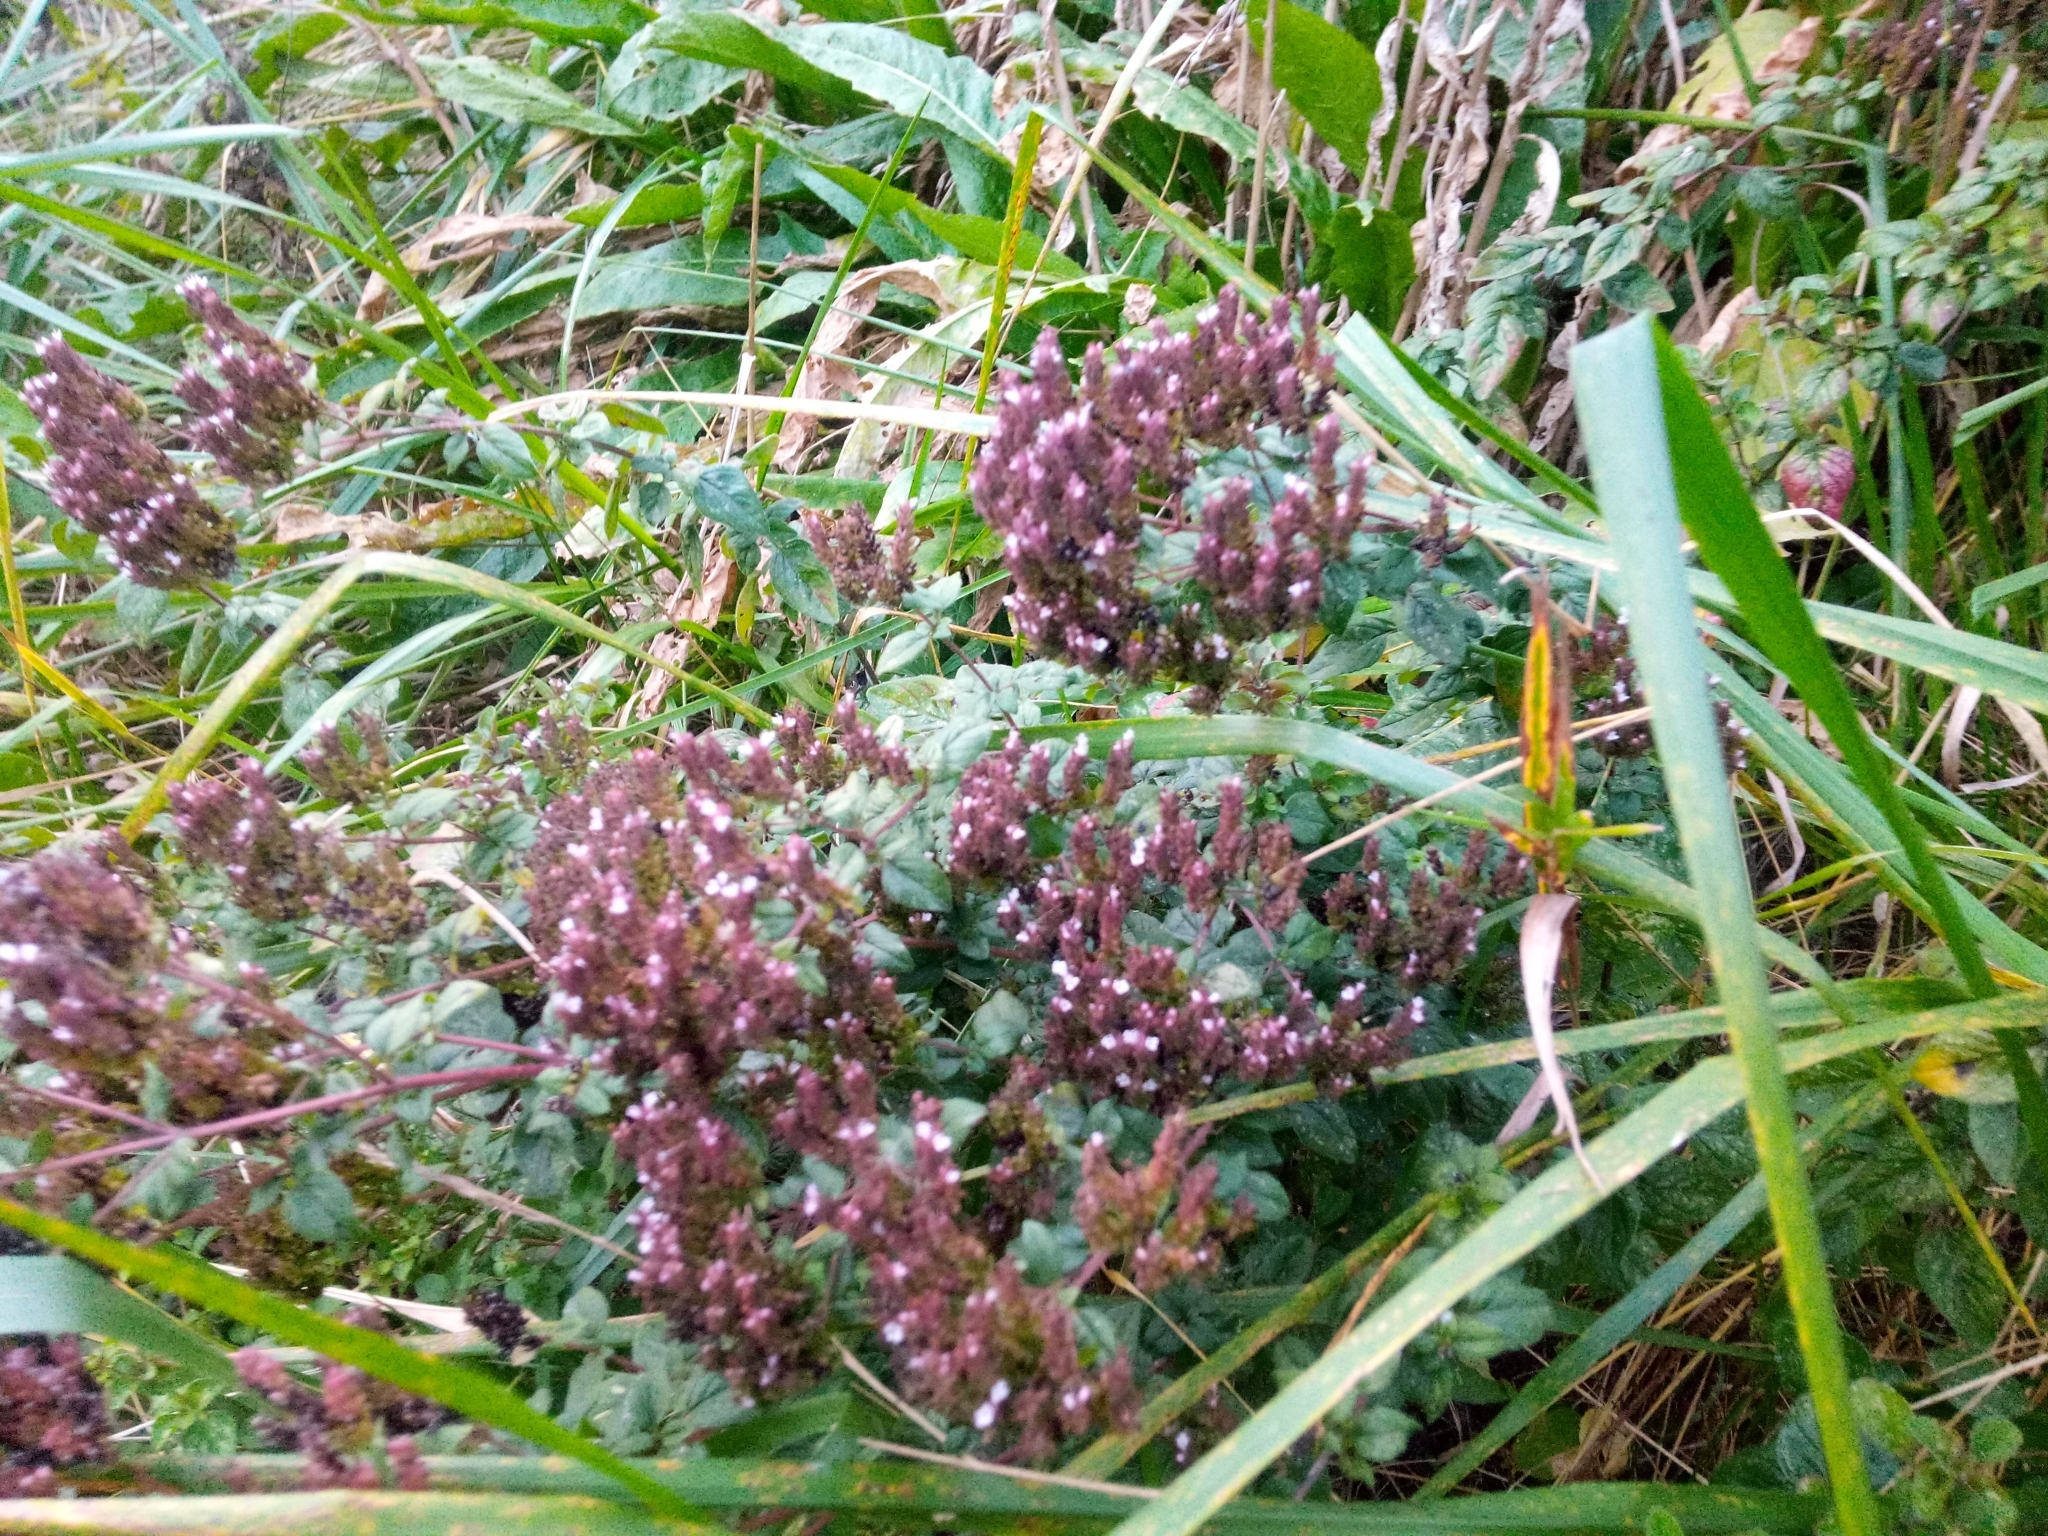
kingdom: Plantae
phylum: Tracheophyta
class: Magnoliopsida
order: Lamiales
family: Lamiaceae
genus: Origanum
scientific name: Origanum vulgare
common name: Wild marjoram
